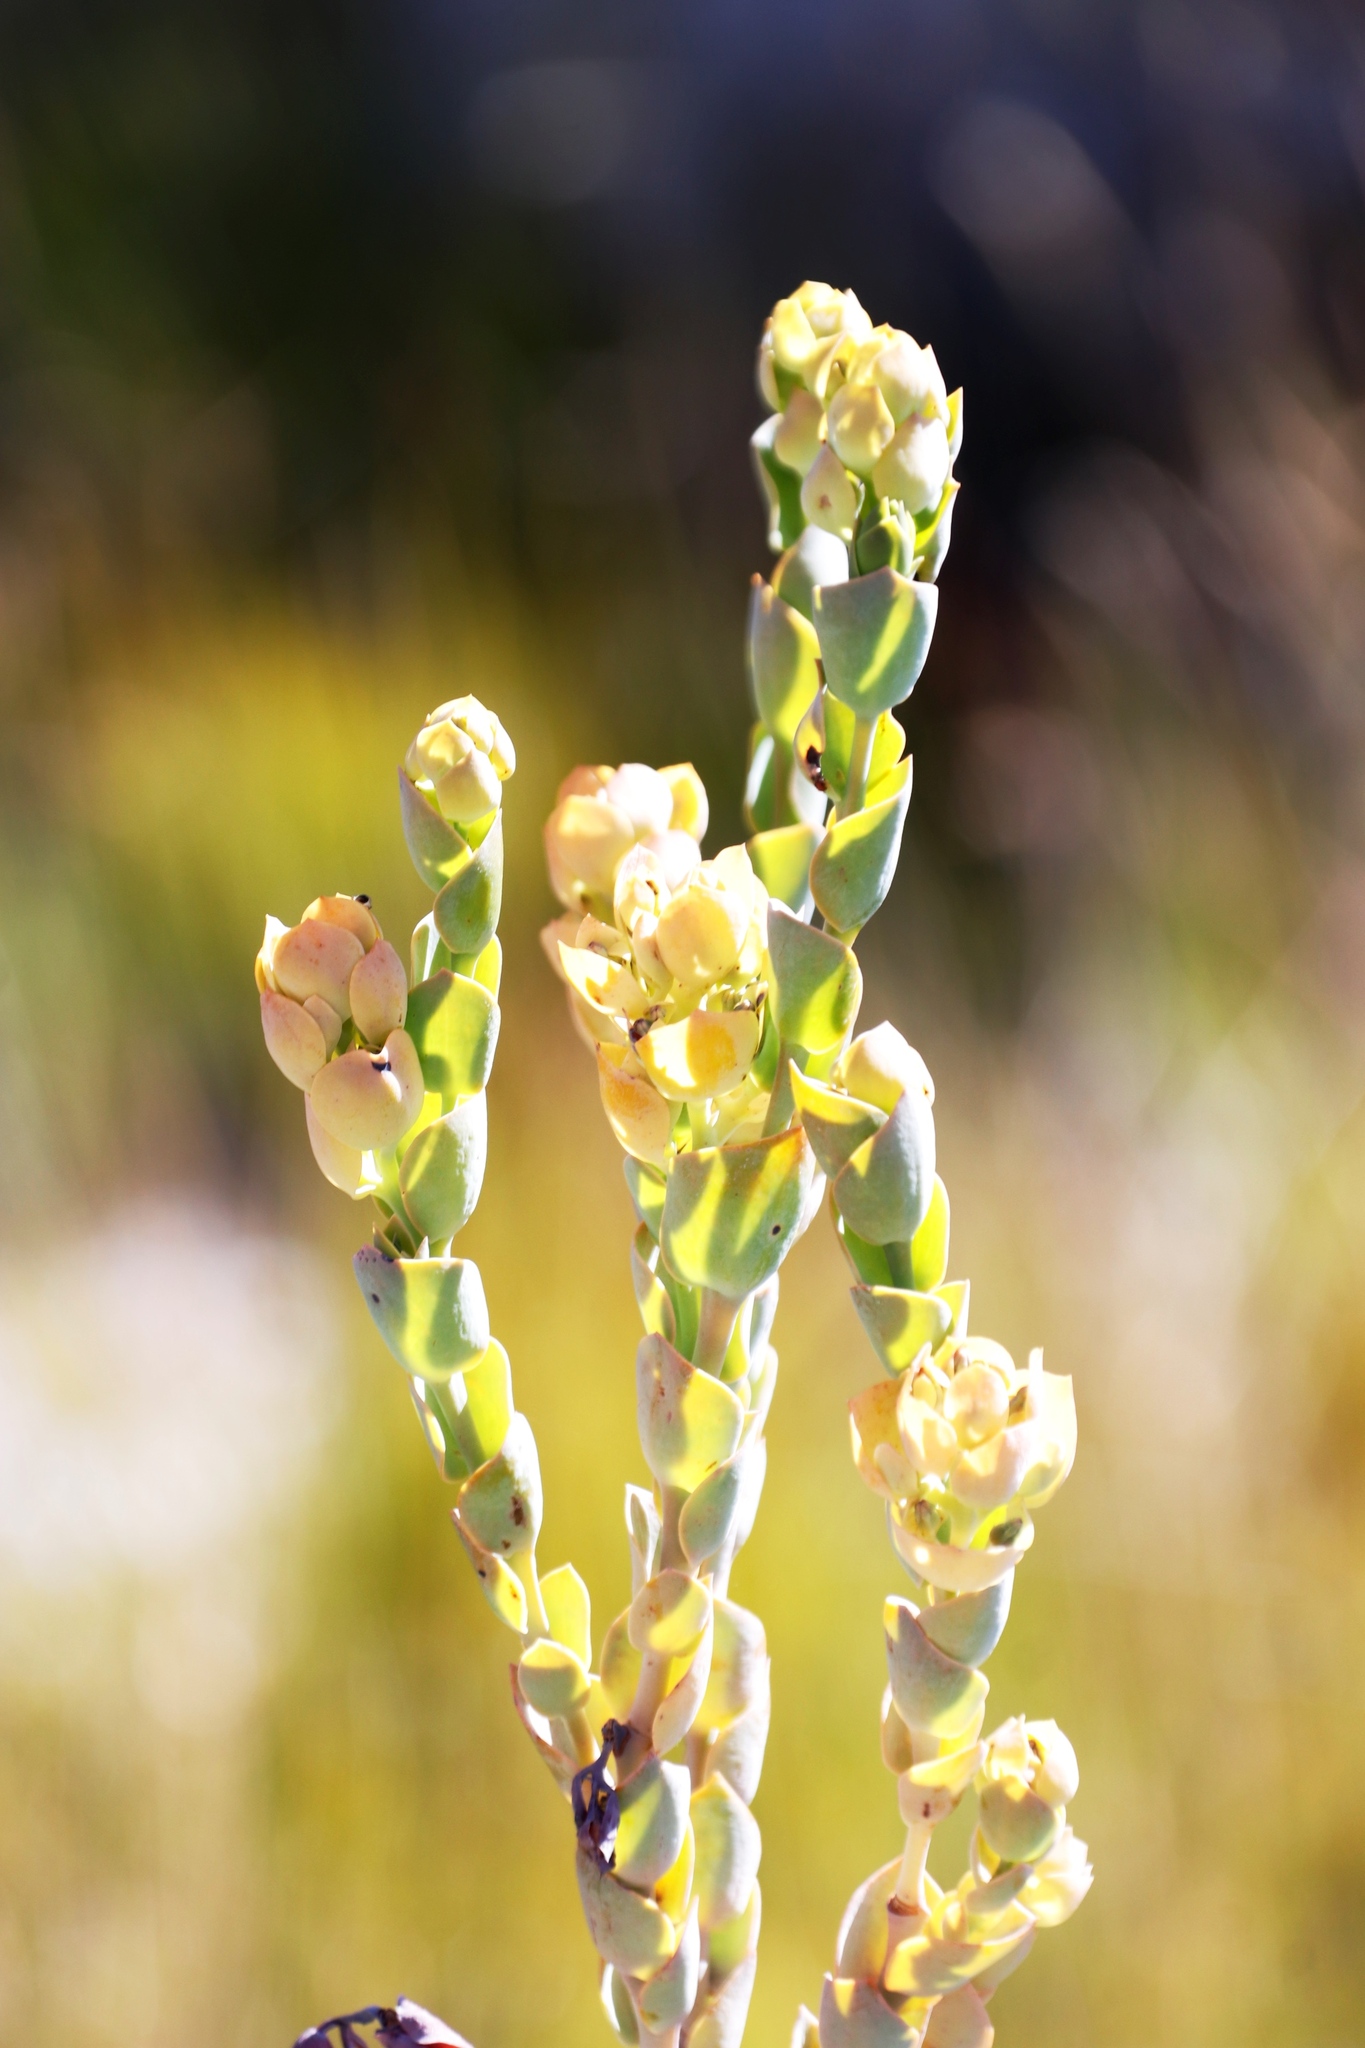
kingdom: Plantae
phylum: Tracheophyta
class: Magnoliopsida
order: Santalales
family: Thesiaceae
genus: Thesium
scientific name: Thesium euphorbioides
